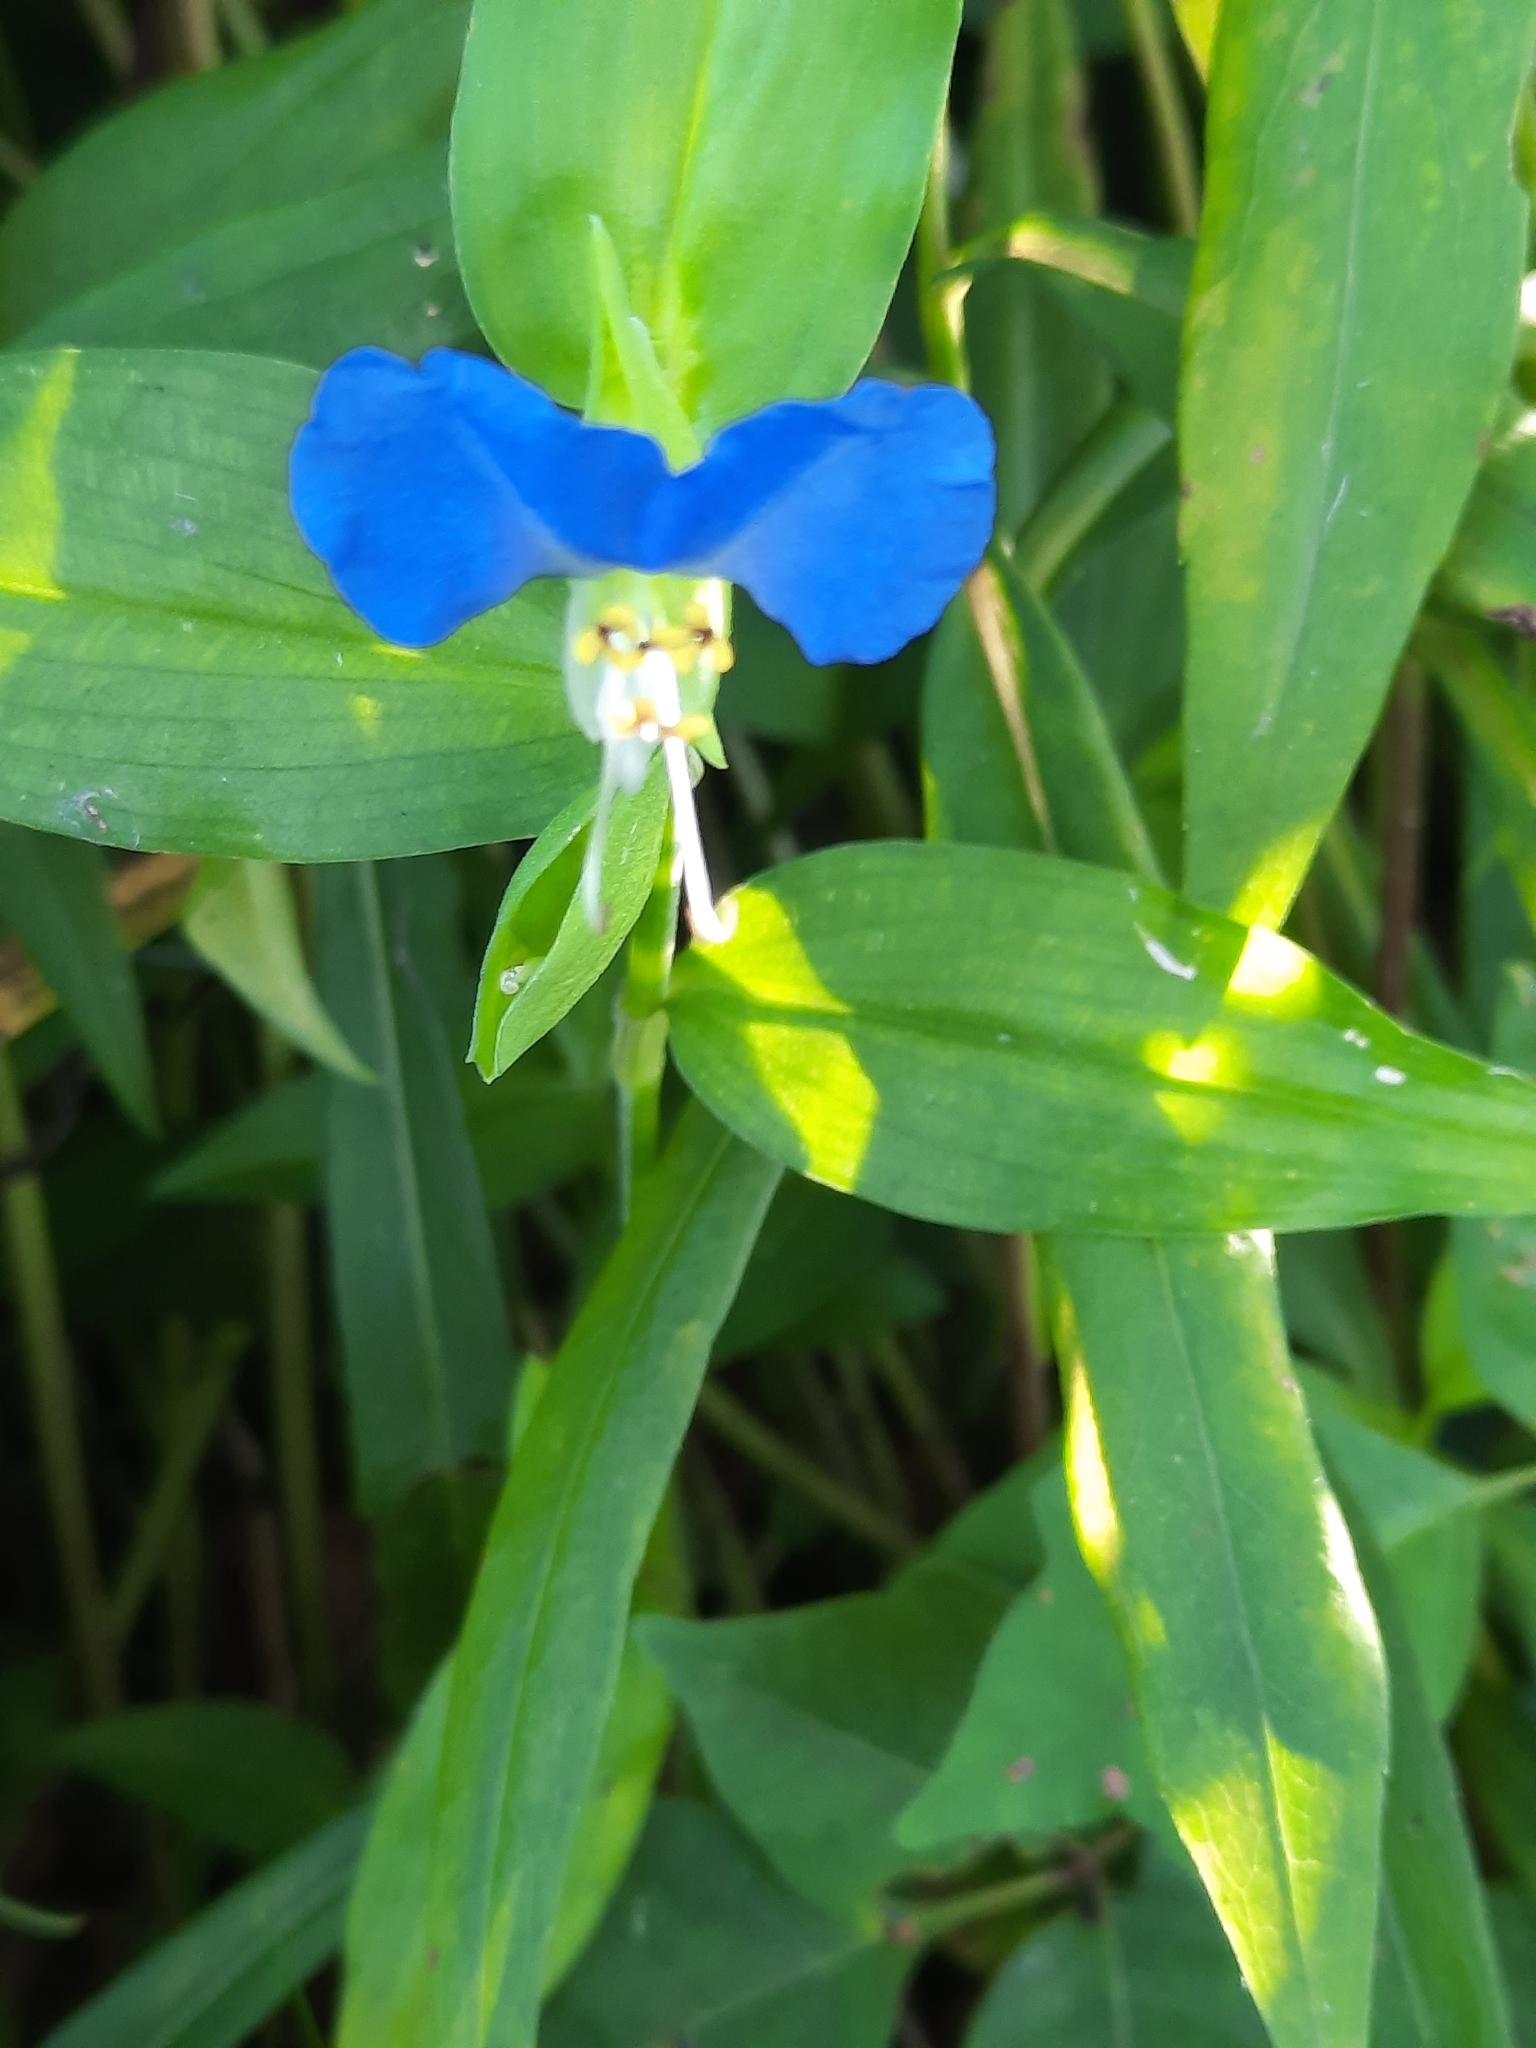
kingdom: Plantae
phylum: Tracheophyta
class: Liliopsida
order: Commelinales
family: Commelinaceae
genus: Commelina
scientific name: Commelina communis
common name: Asiatic dayflower
